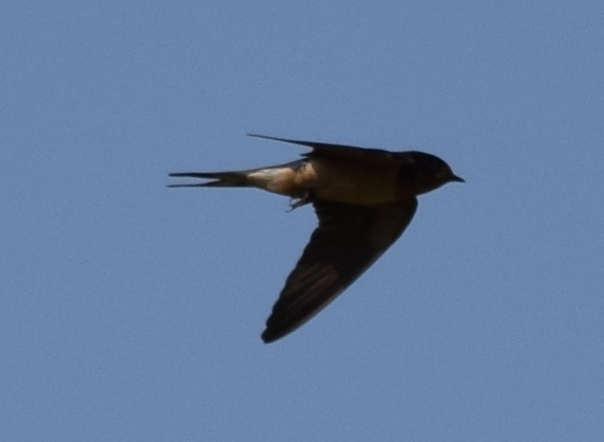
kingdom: Animalia
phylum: Chordata
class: Aves
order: Passeriformes
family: Hirundinidae
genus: Hirundo
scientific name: Hirundo rustica
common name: Barn swallow
